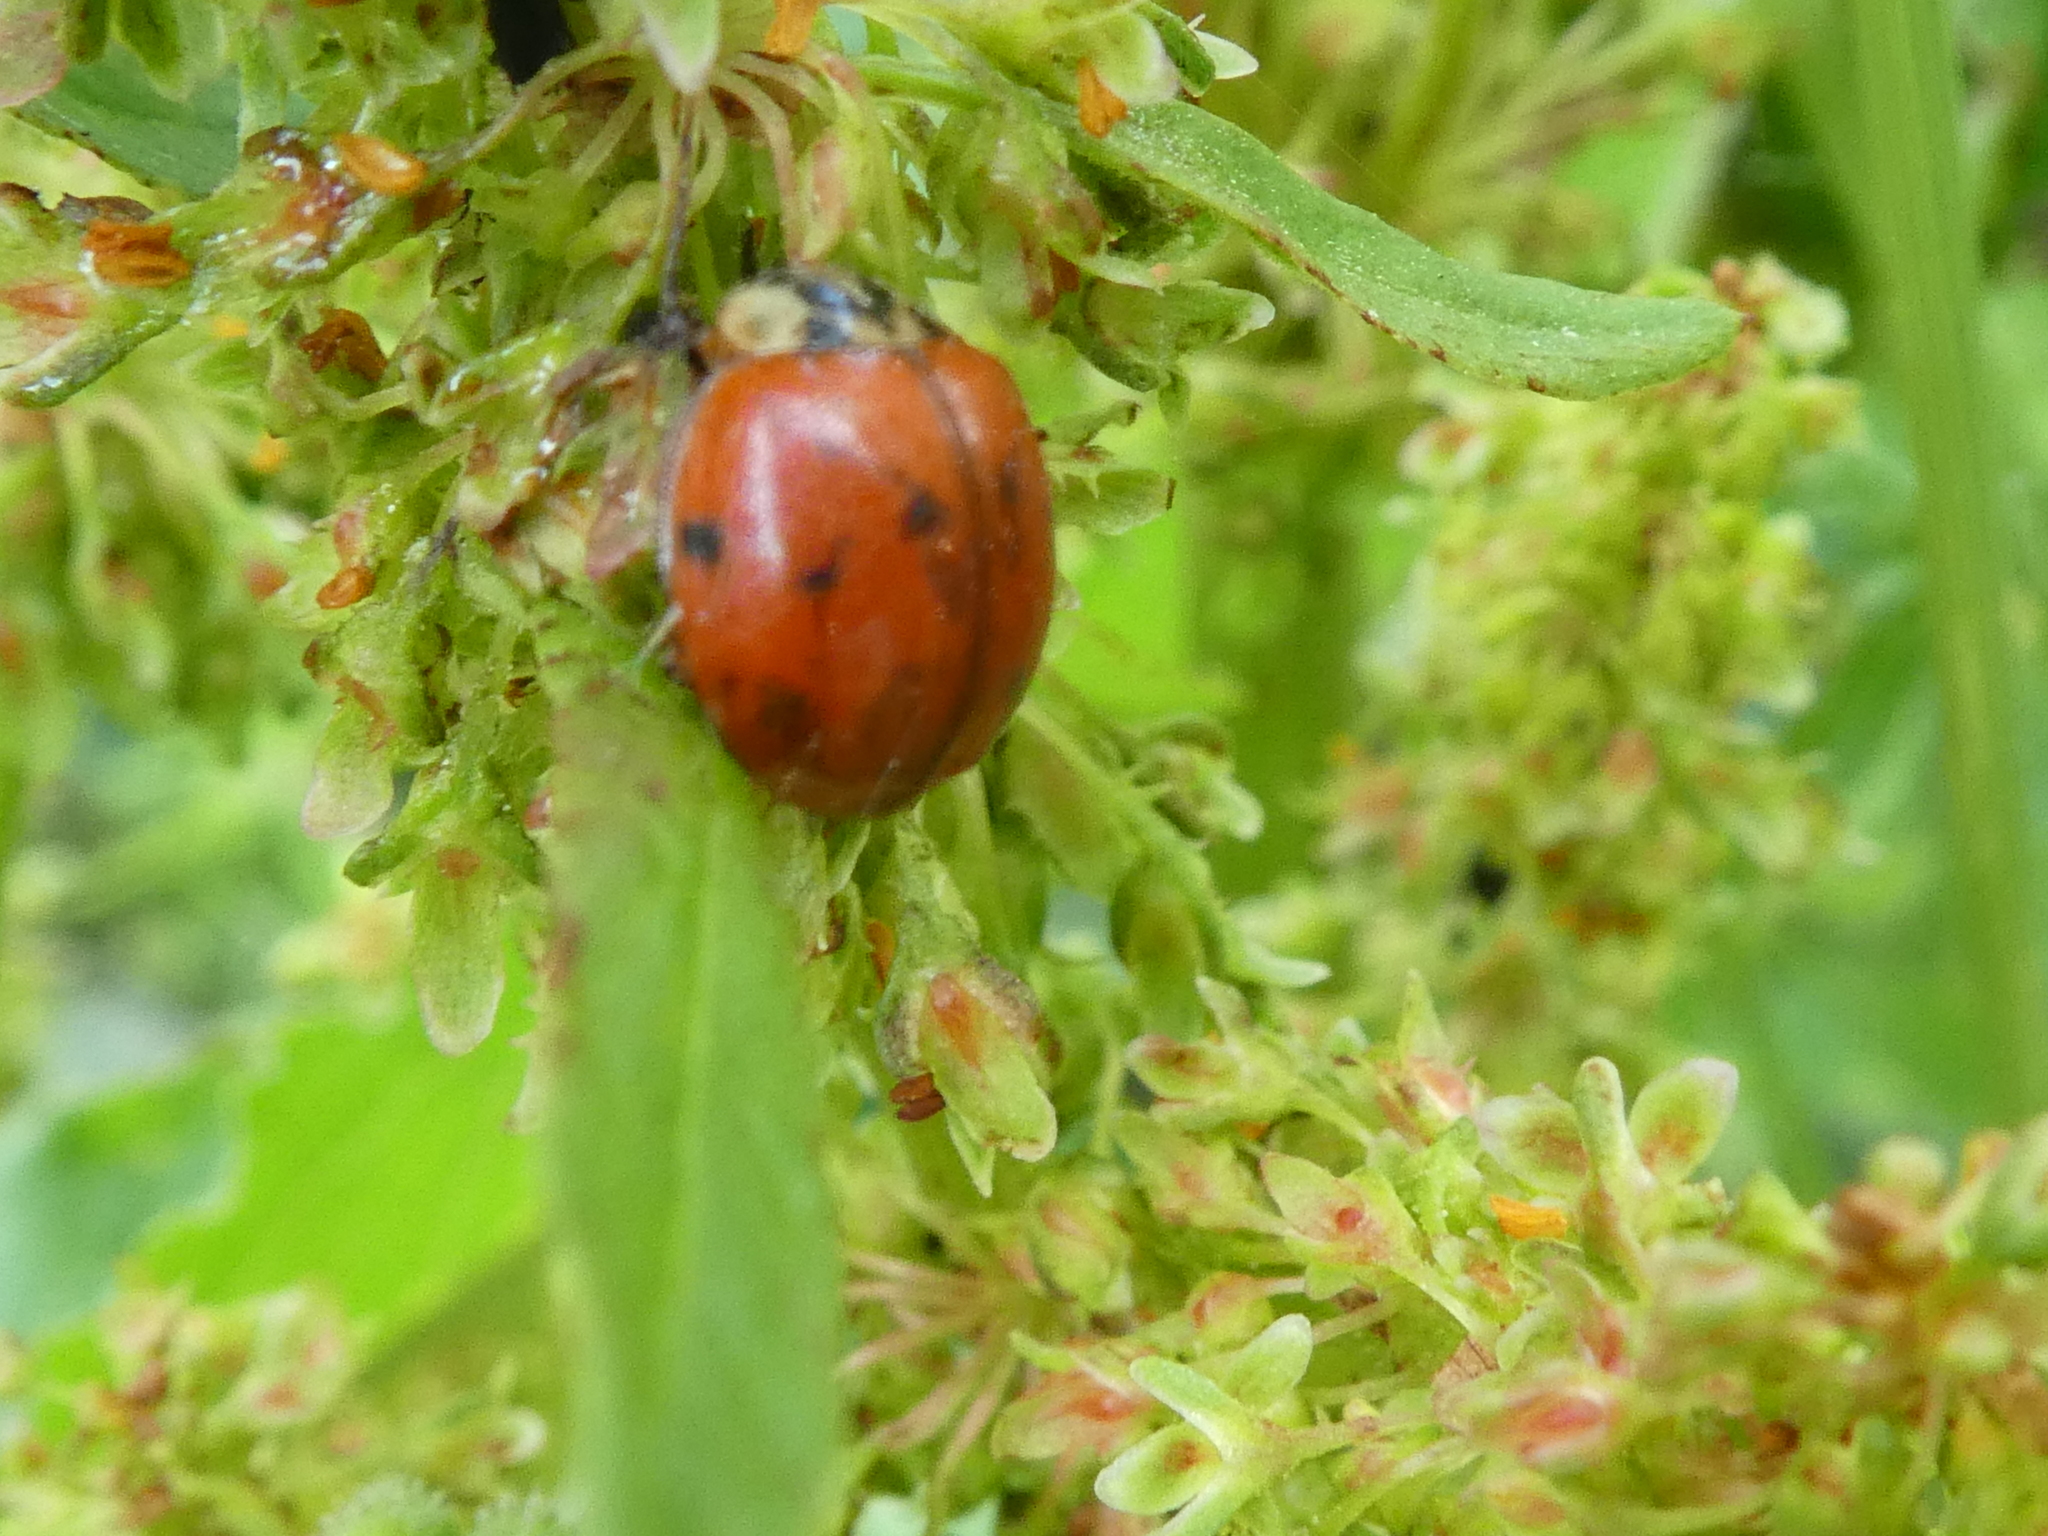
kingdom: Animalia
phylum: Arthropoda
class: Insecta
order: Coleoptera
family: Coccinellidae
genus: Harmonia
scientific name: Harmonia axyridis
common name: Harlequin ladybird
